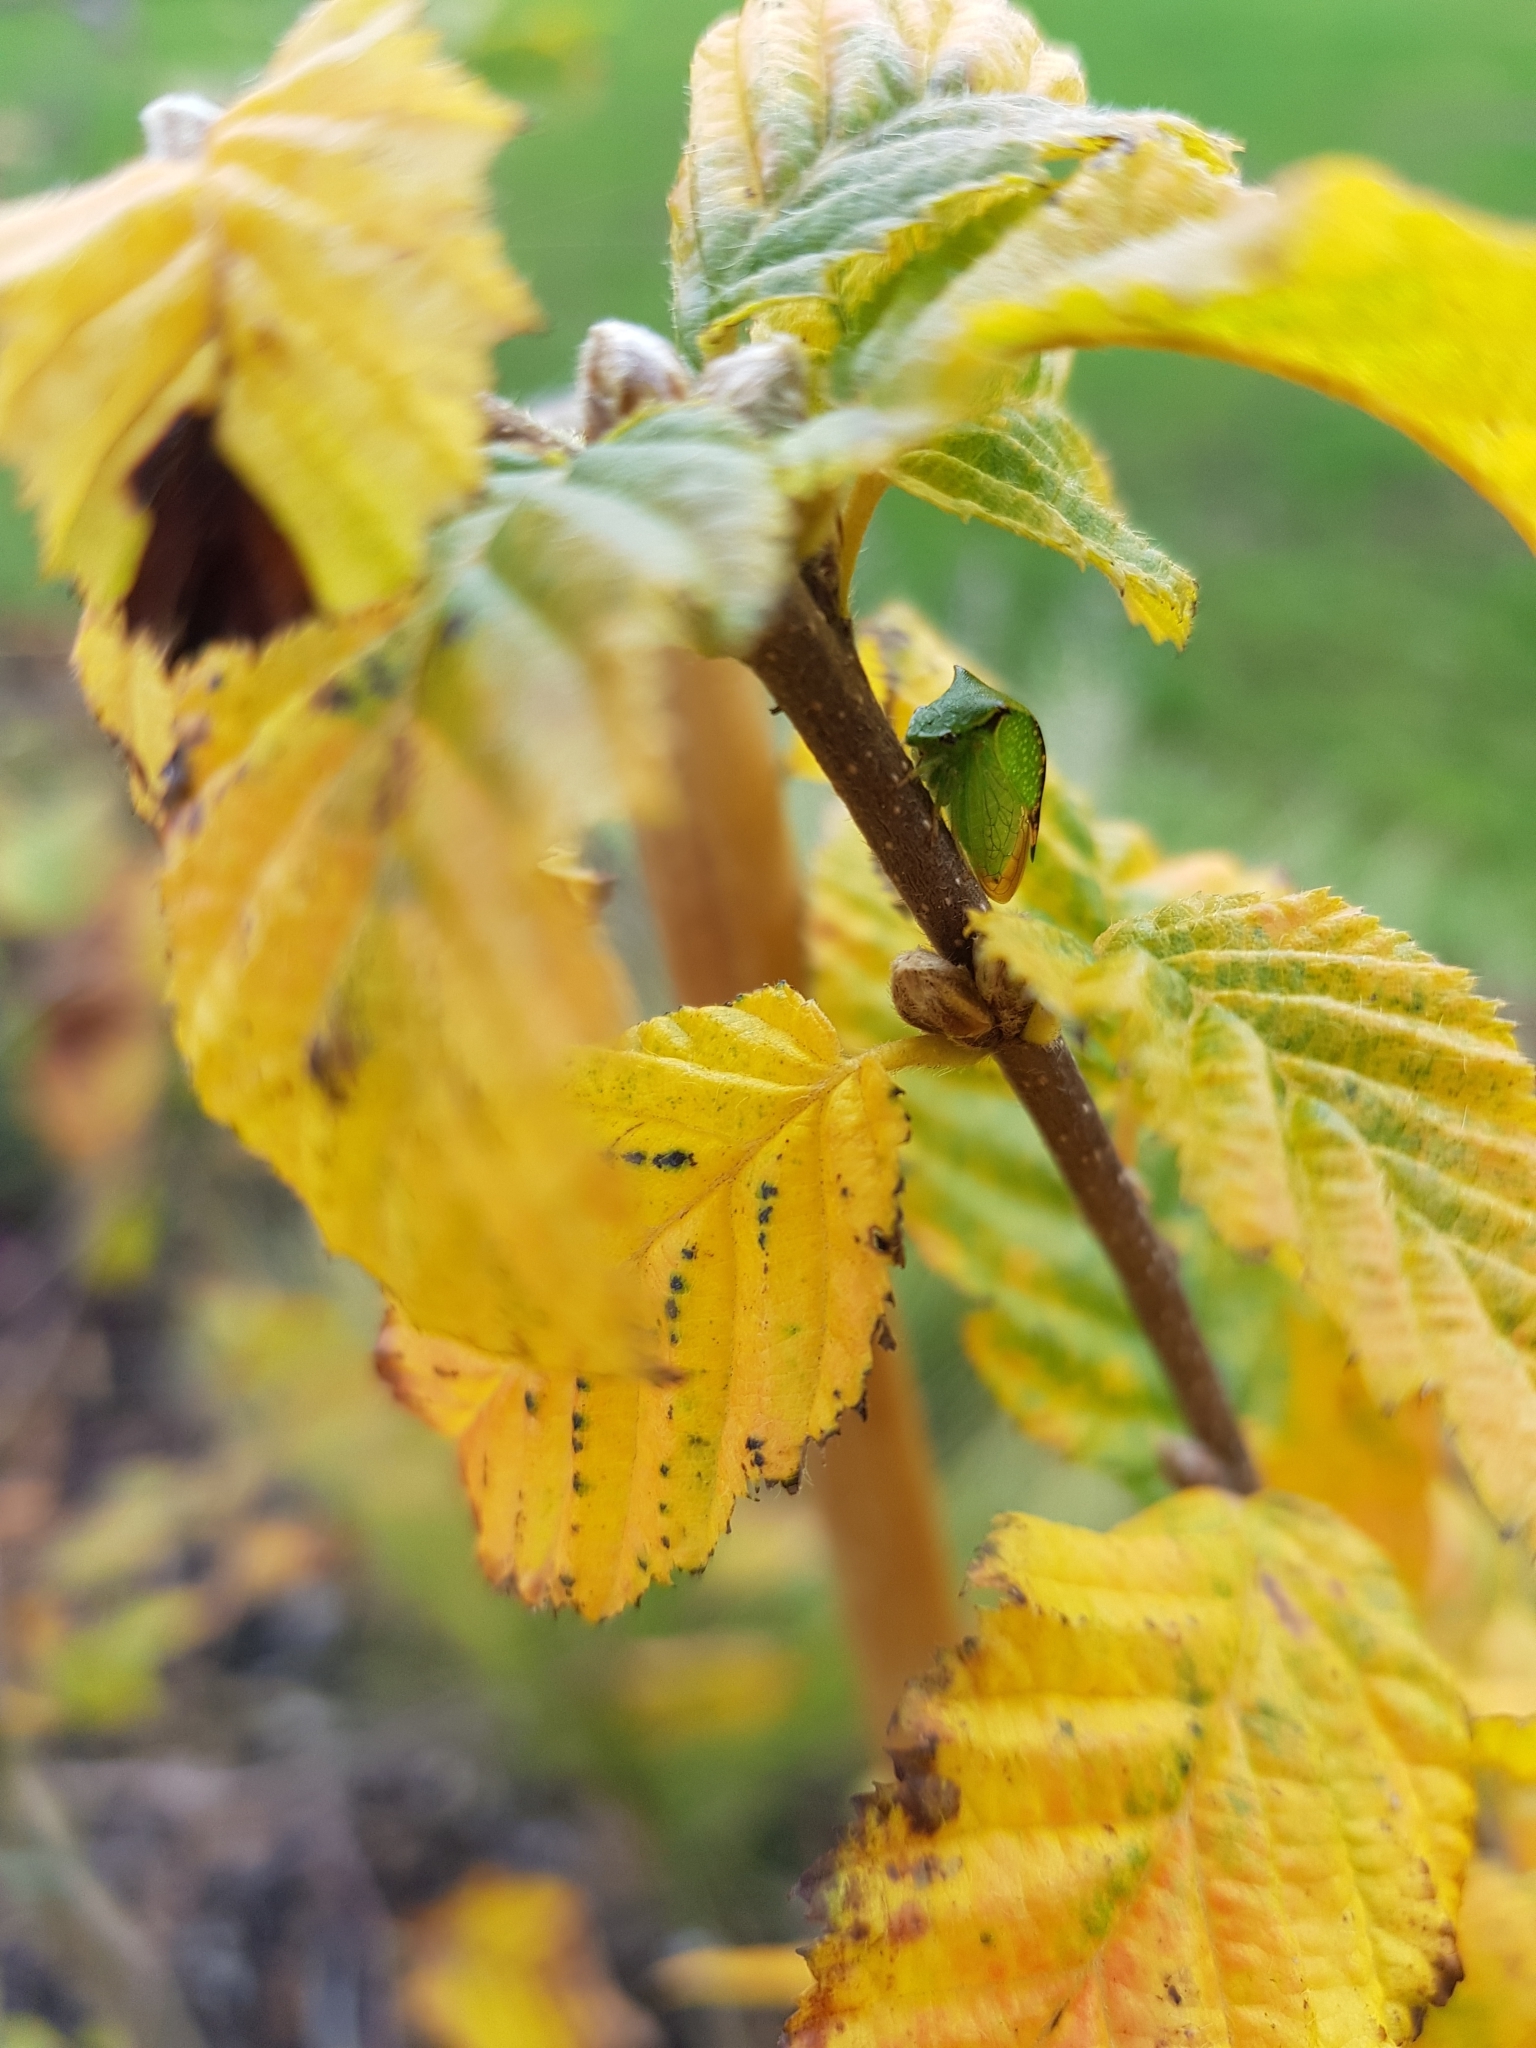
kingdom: Animalia
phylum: Arthropoda
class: Insecta
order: Hemiptera
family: Membracidae
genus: Stictocephala
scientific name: Stictocephala bisonia
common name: American buffalo treehopper
